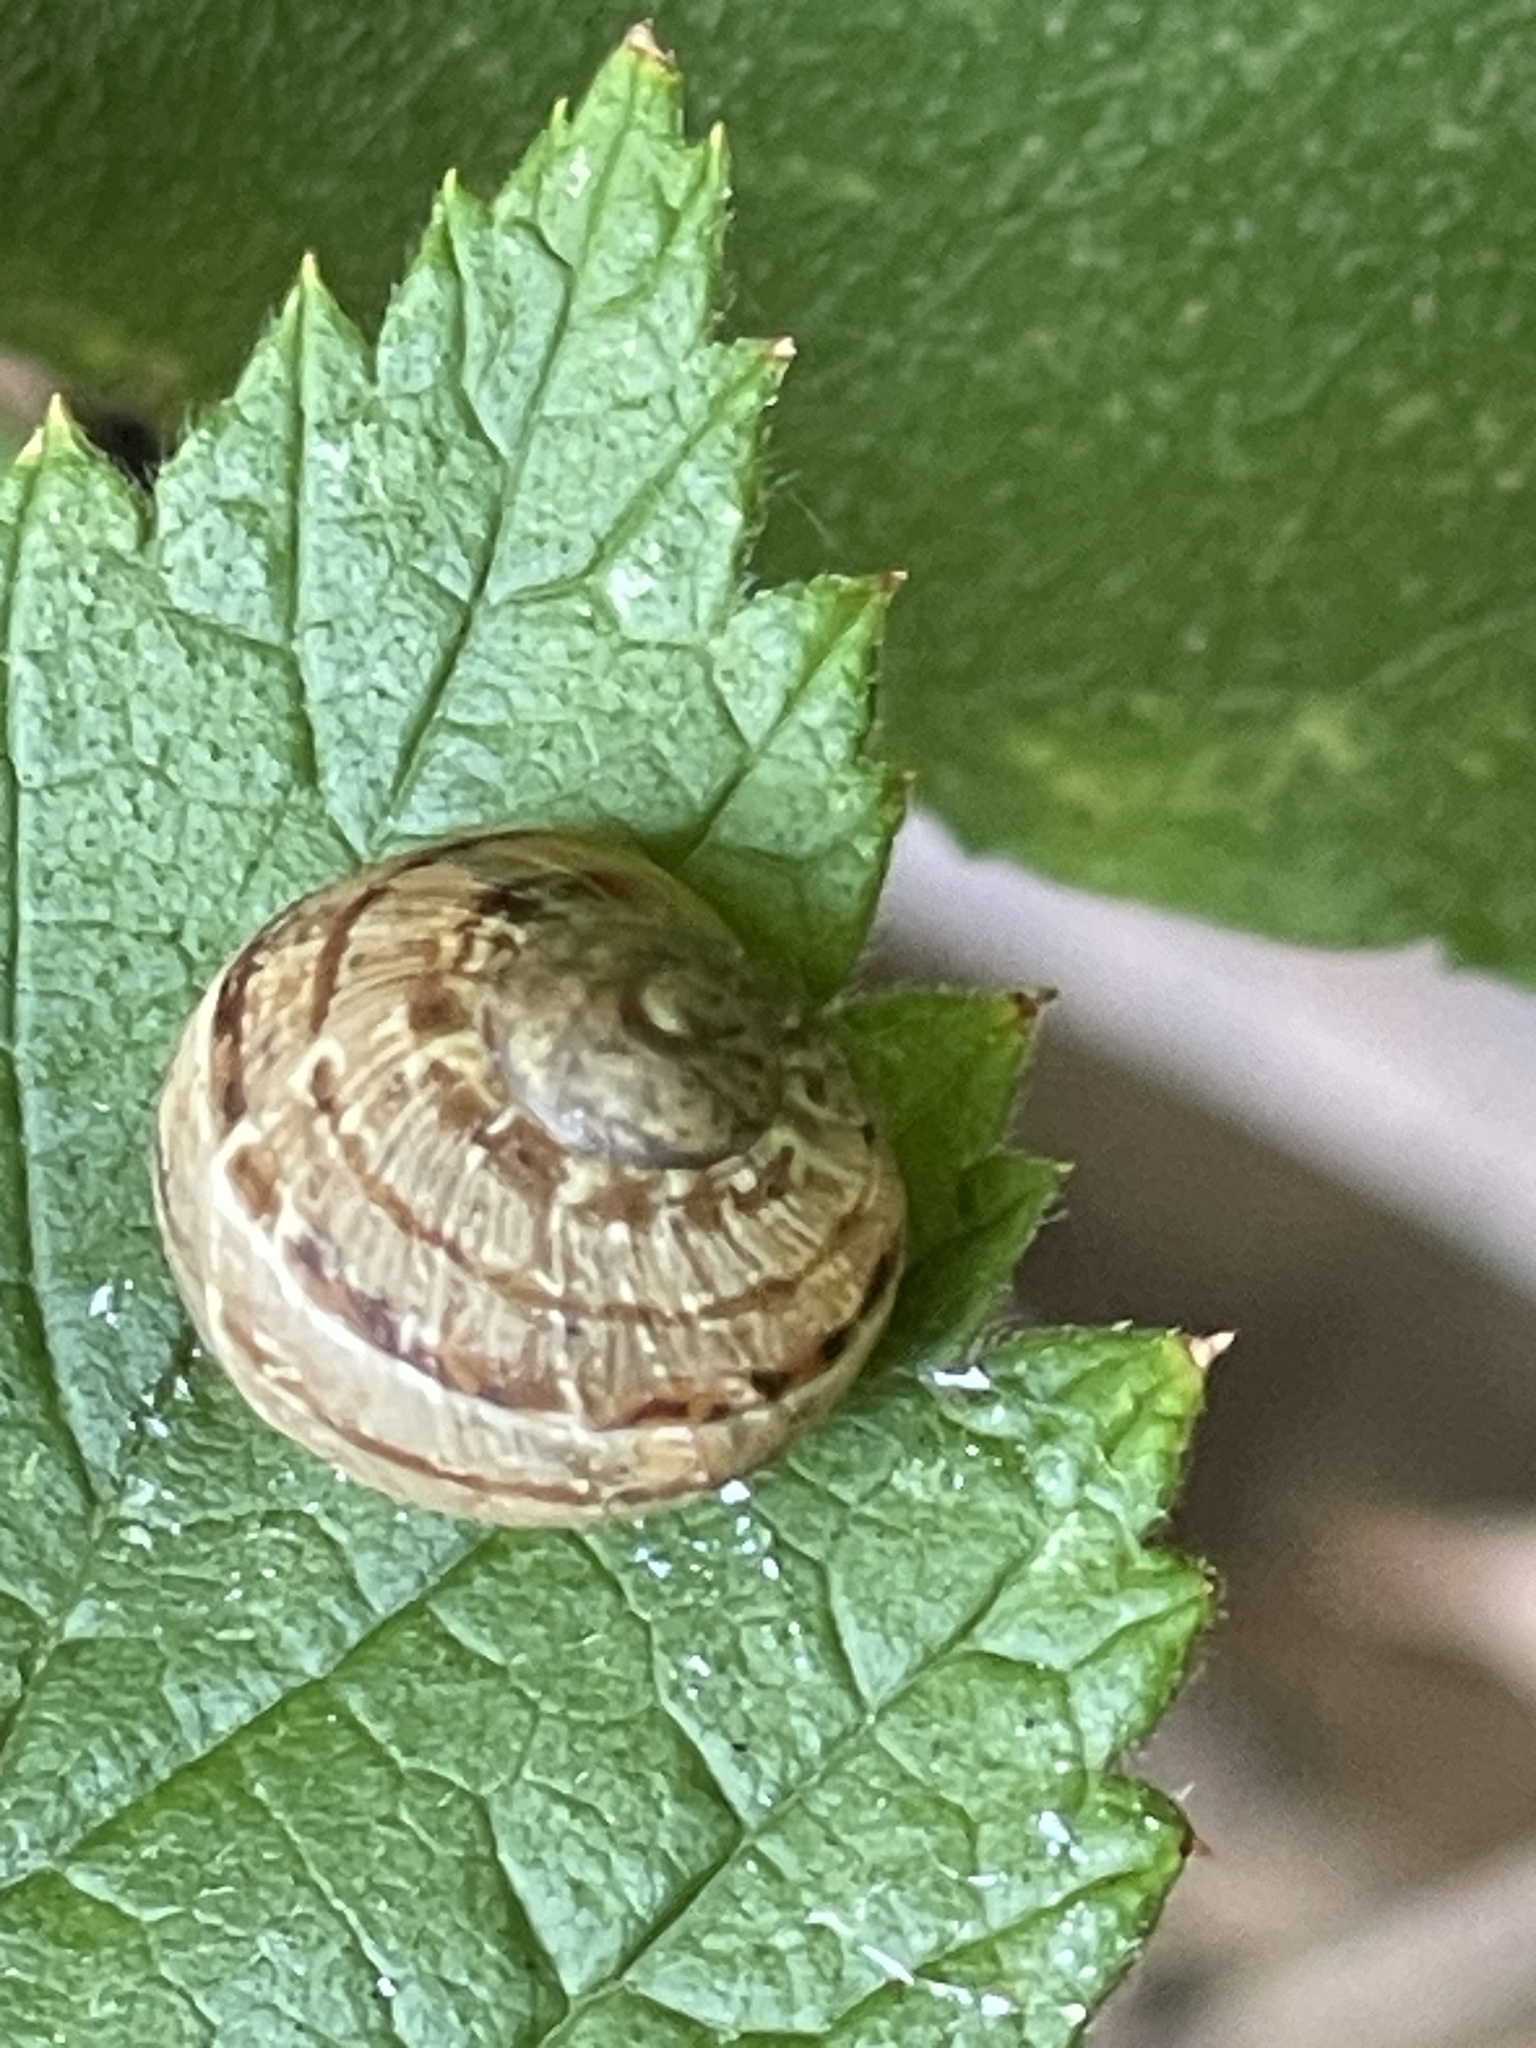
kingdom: Animalia
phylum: Mollusca
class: Gastropoda
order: Stylommatophora
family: Helicidae
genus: Cornu
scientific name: Cornu aspersum
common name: Brown garden snail
